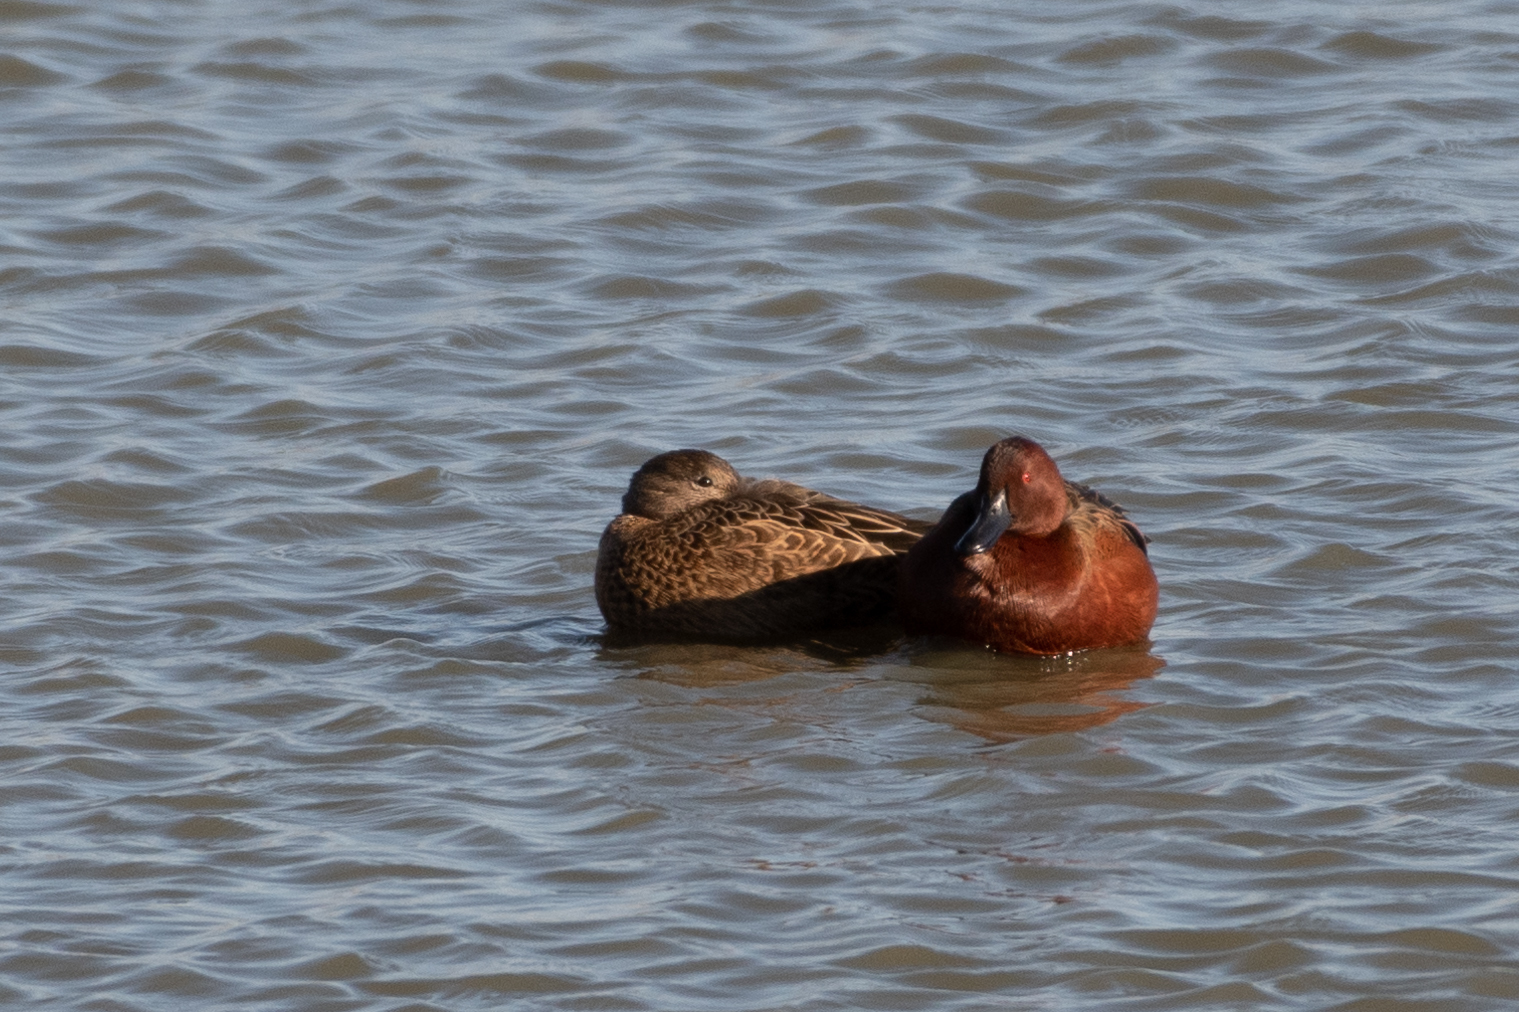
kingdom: Animalia
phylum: Chordata
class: Aves
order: Anseriformes
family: Anatidae
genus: Spatula
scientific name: Spatula cyanoptera
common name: Cinnamon teal
